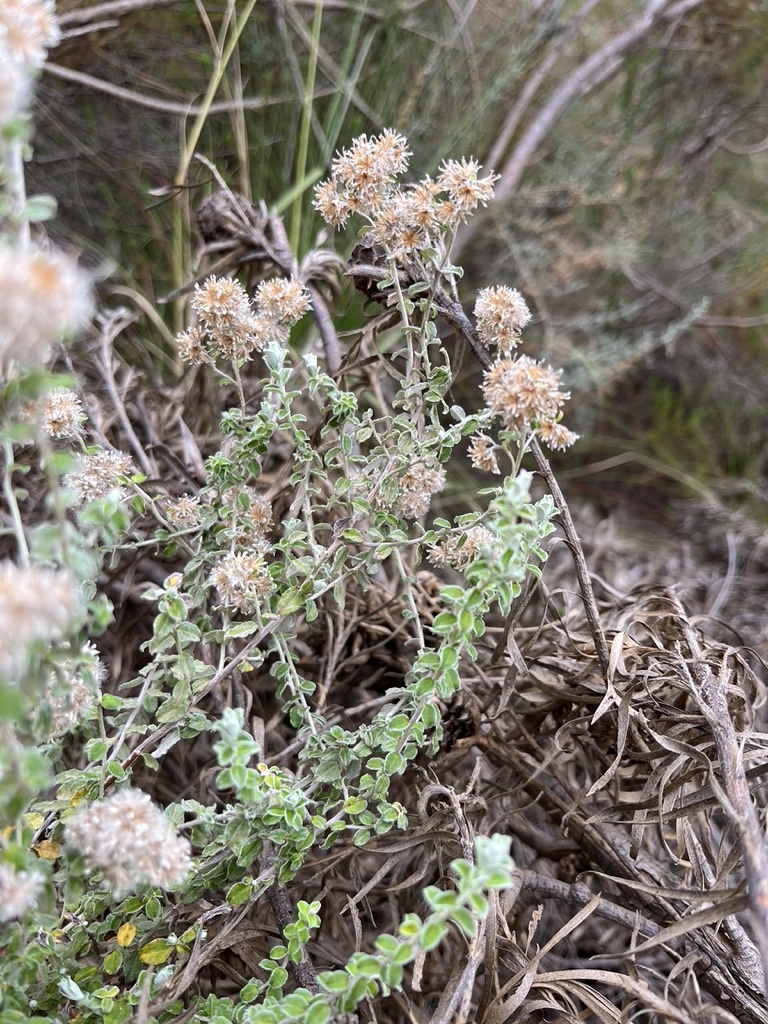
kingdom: Plantae
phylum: Tracheophyta
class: Magnoliopsida
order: Asterales
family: Asteraceae
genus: Plecostachys
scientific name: Plecostachys serpyllifolia
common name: Petite licorice
